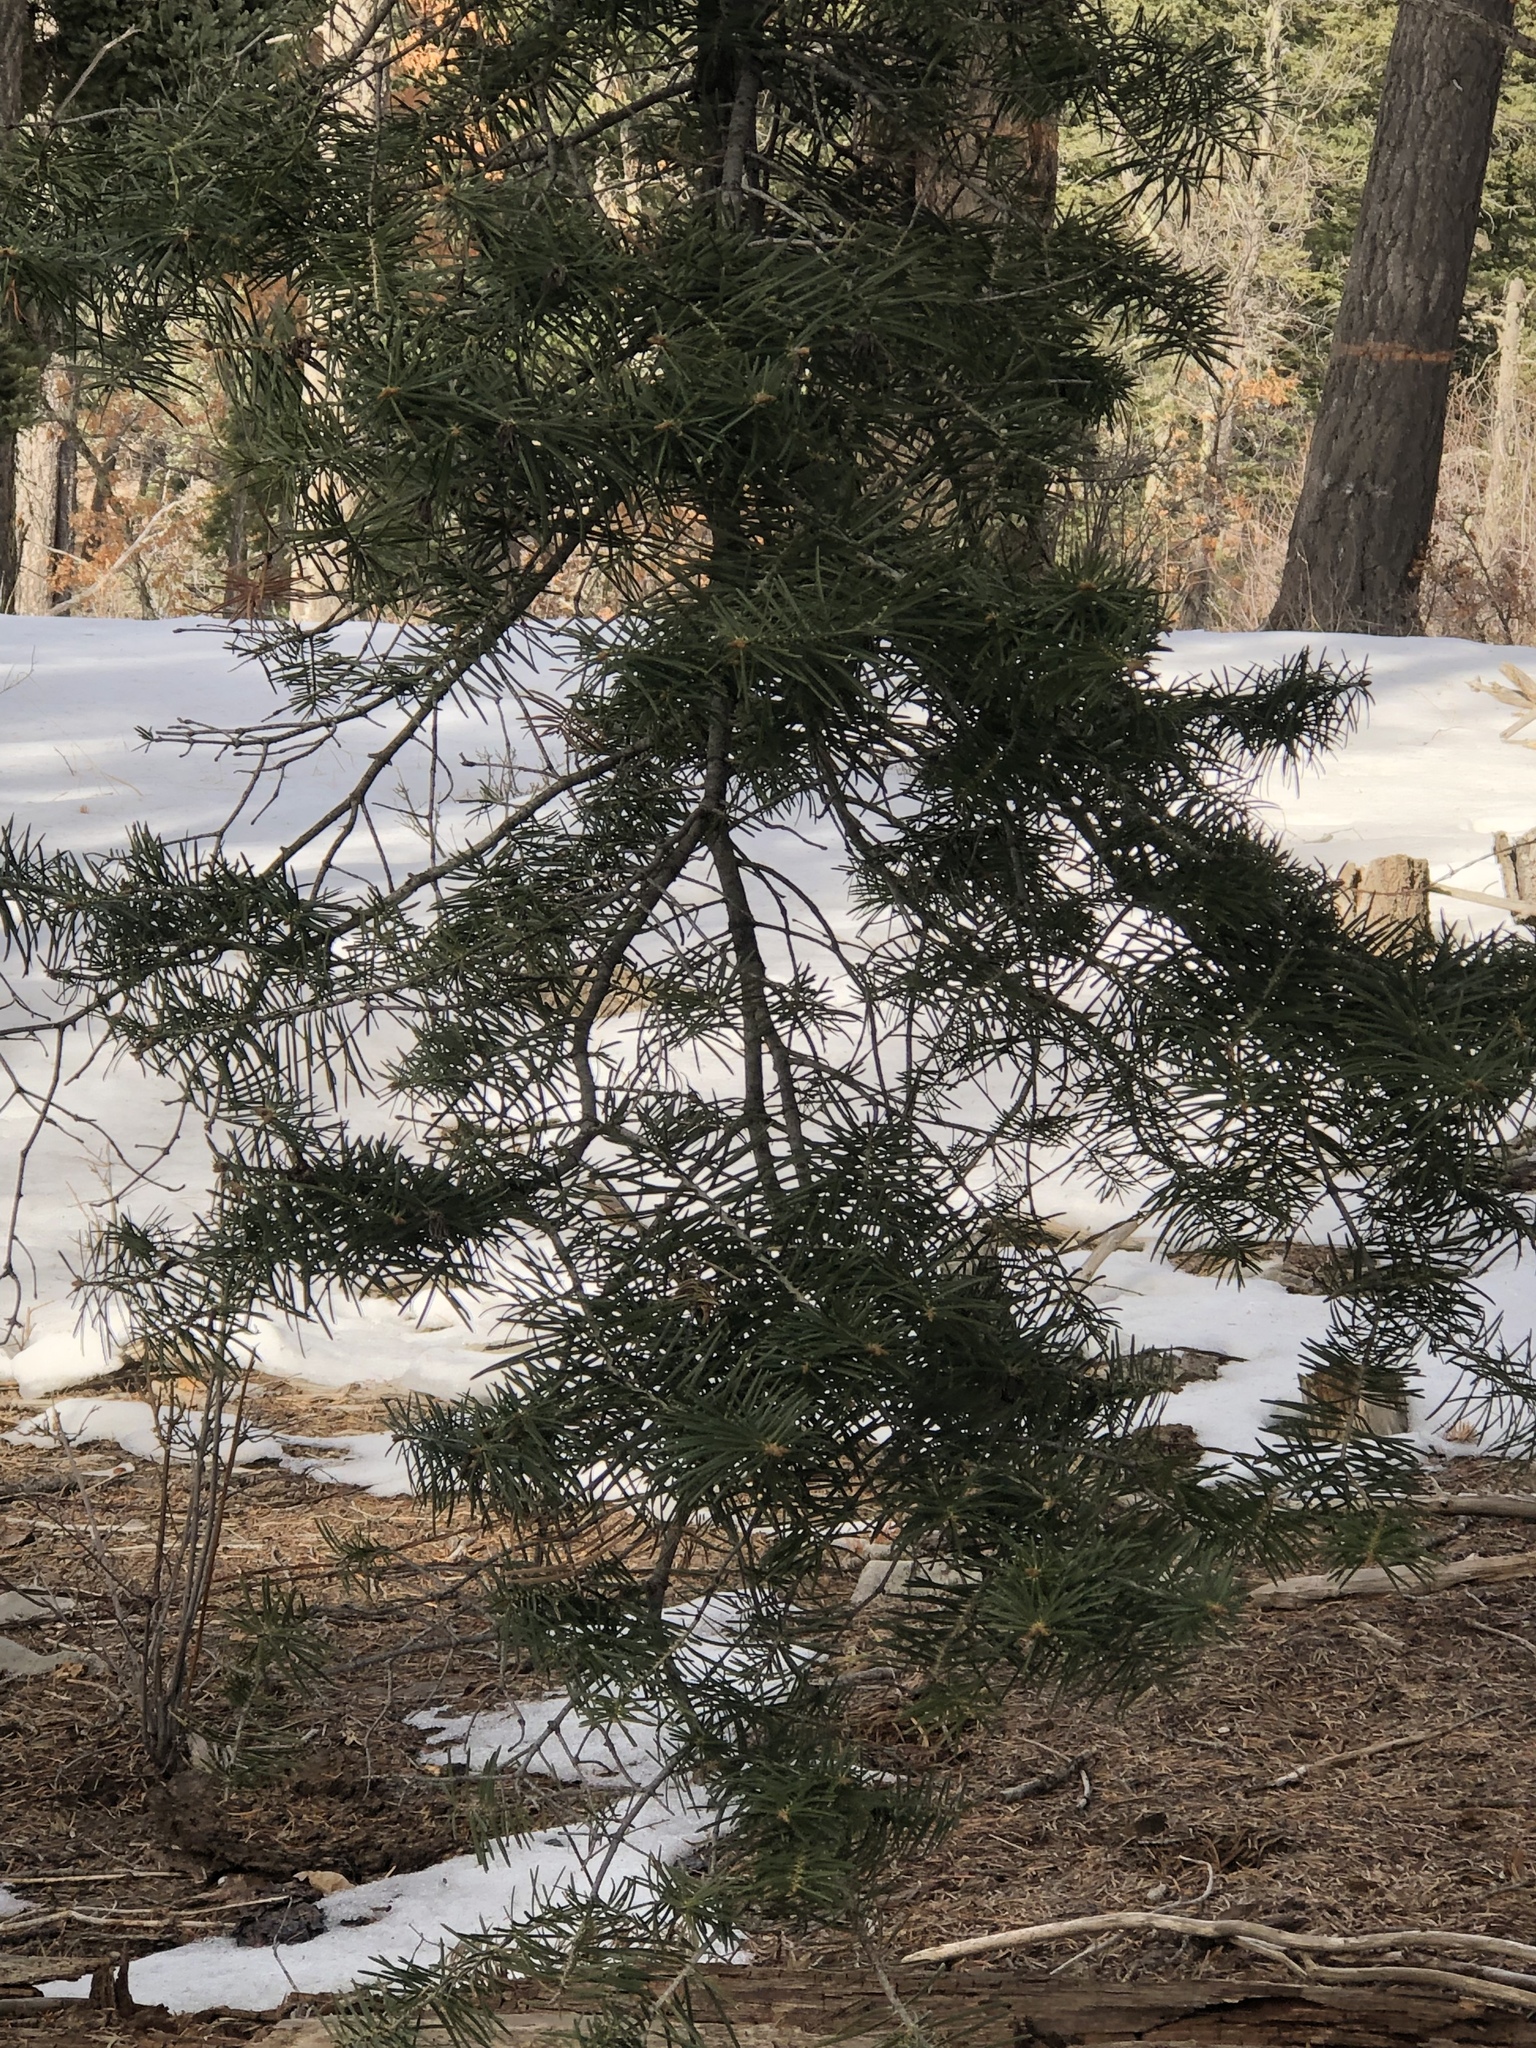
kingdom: Plantae
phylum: Tracheophyta
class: Pinopsida
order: Pinales
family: Pinaceae
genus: Abies
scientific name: Abies concolor
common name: Colorado fir
